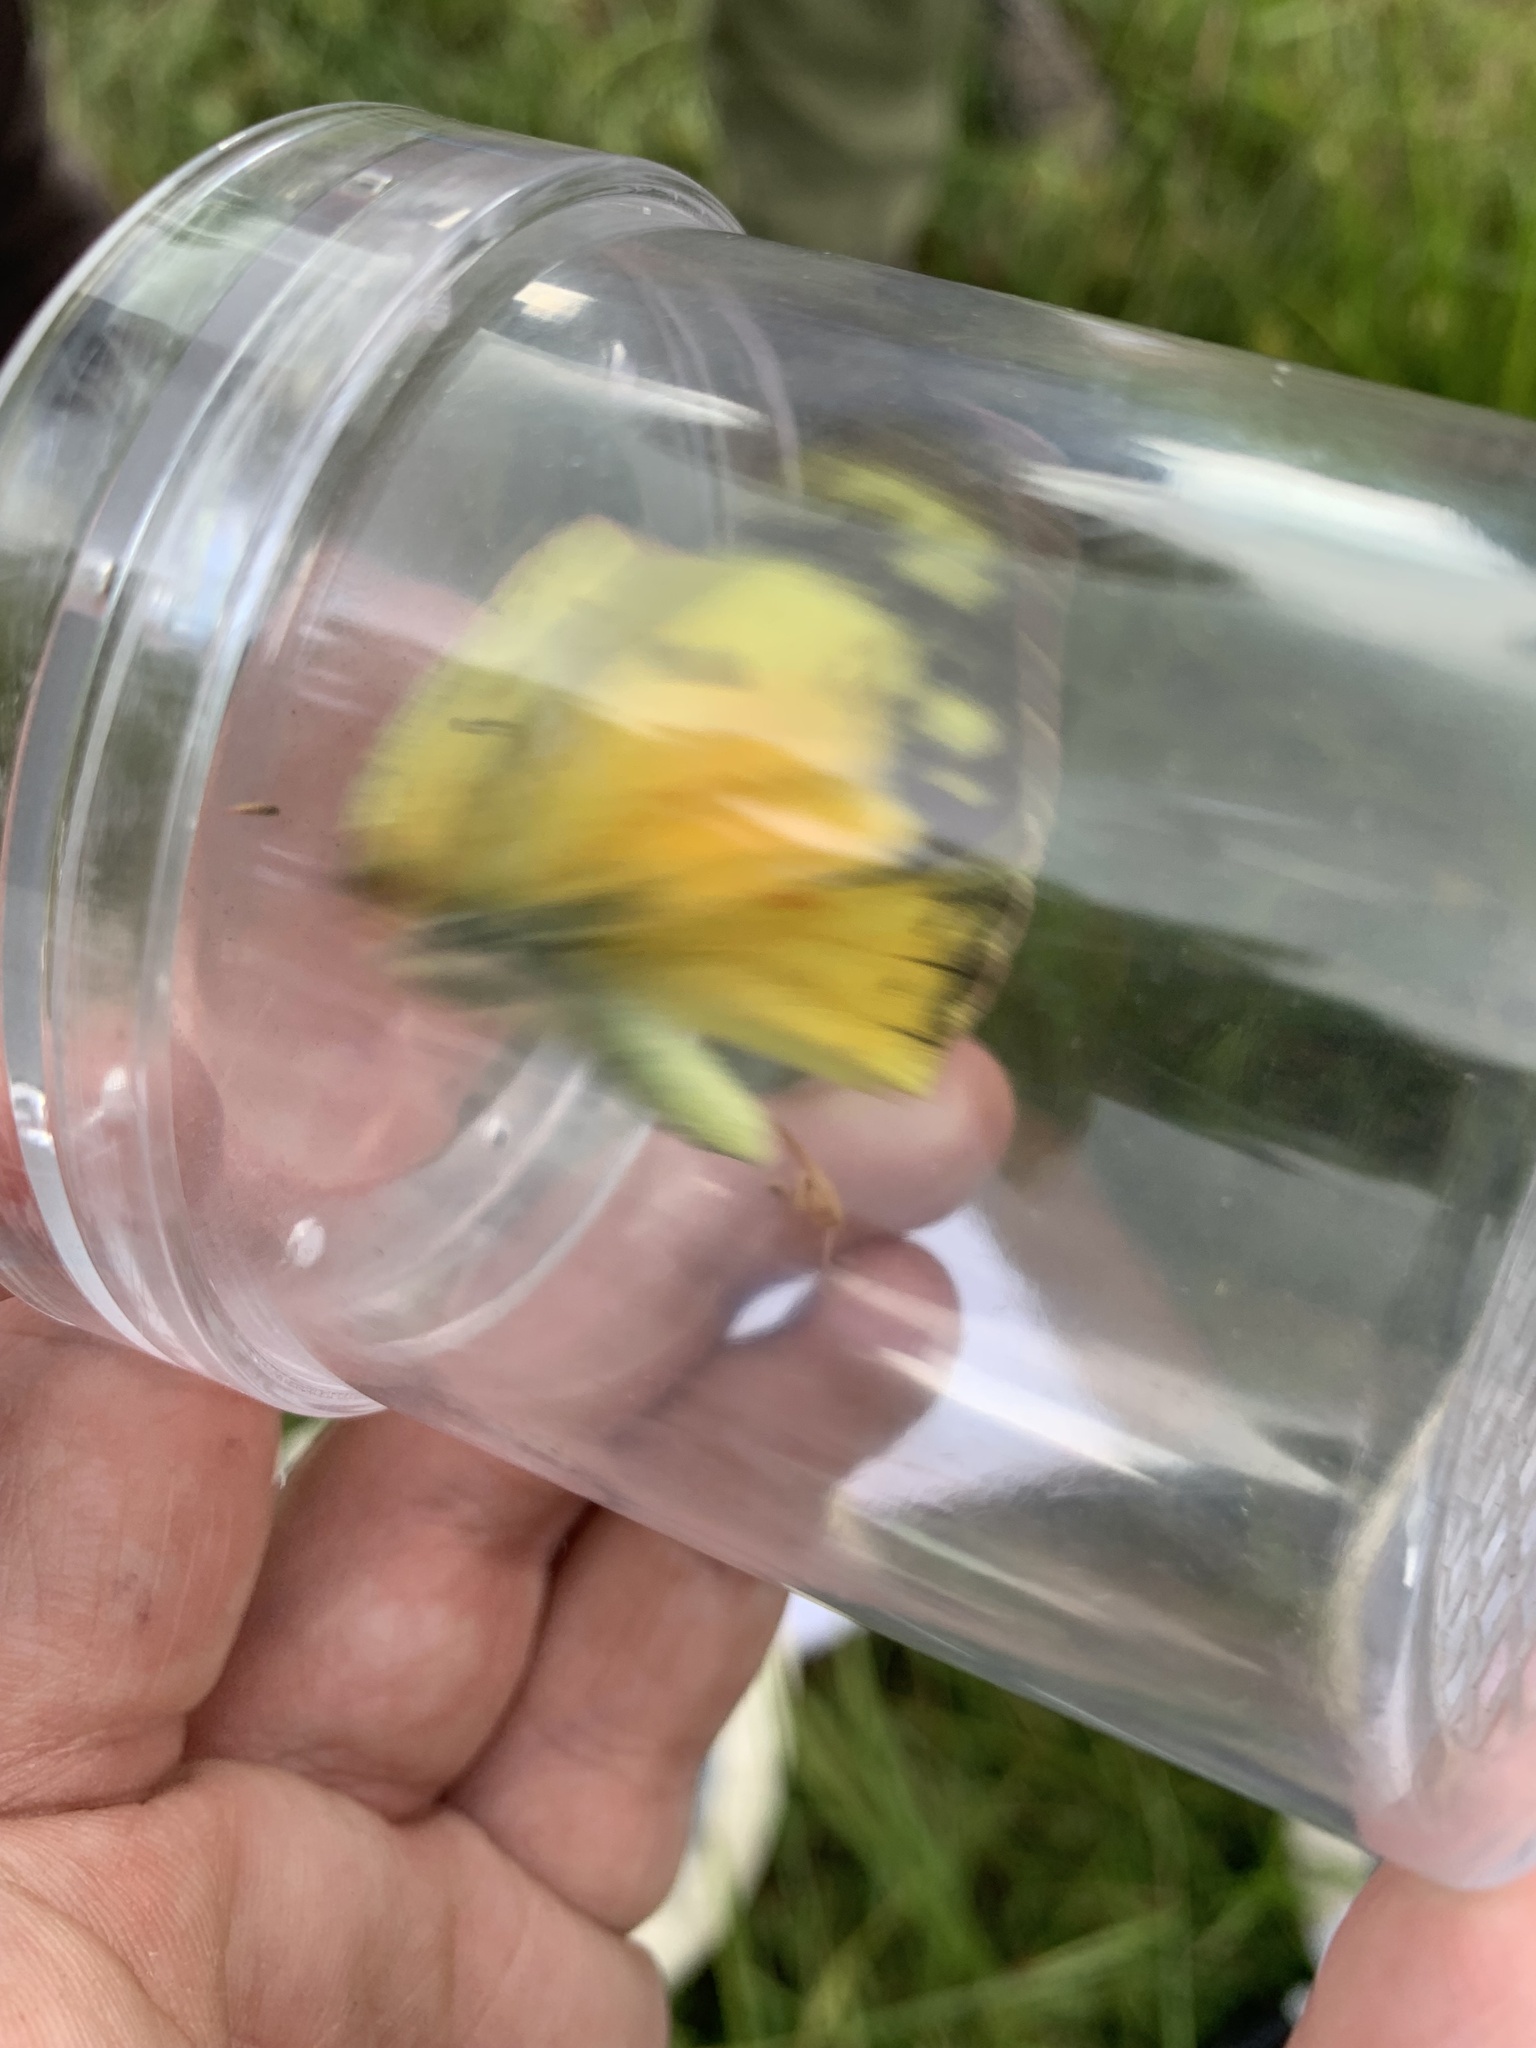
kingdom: Animalia
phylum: Arthropoda
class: Insecta
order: Lepidoptera
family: Pieridae
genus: Colias
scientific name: Colias eurytheme
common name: Alfalfa butterfly
